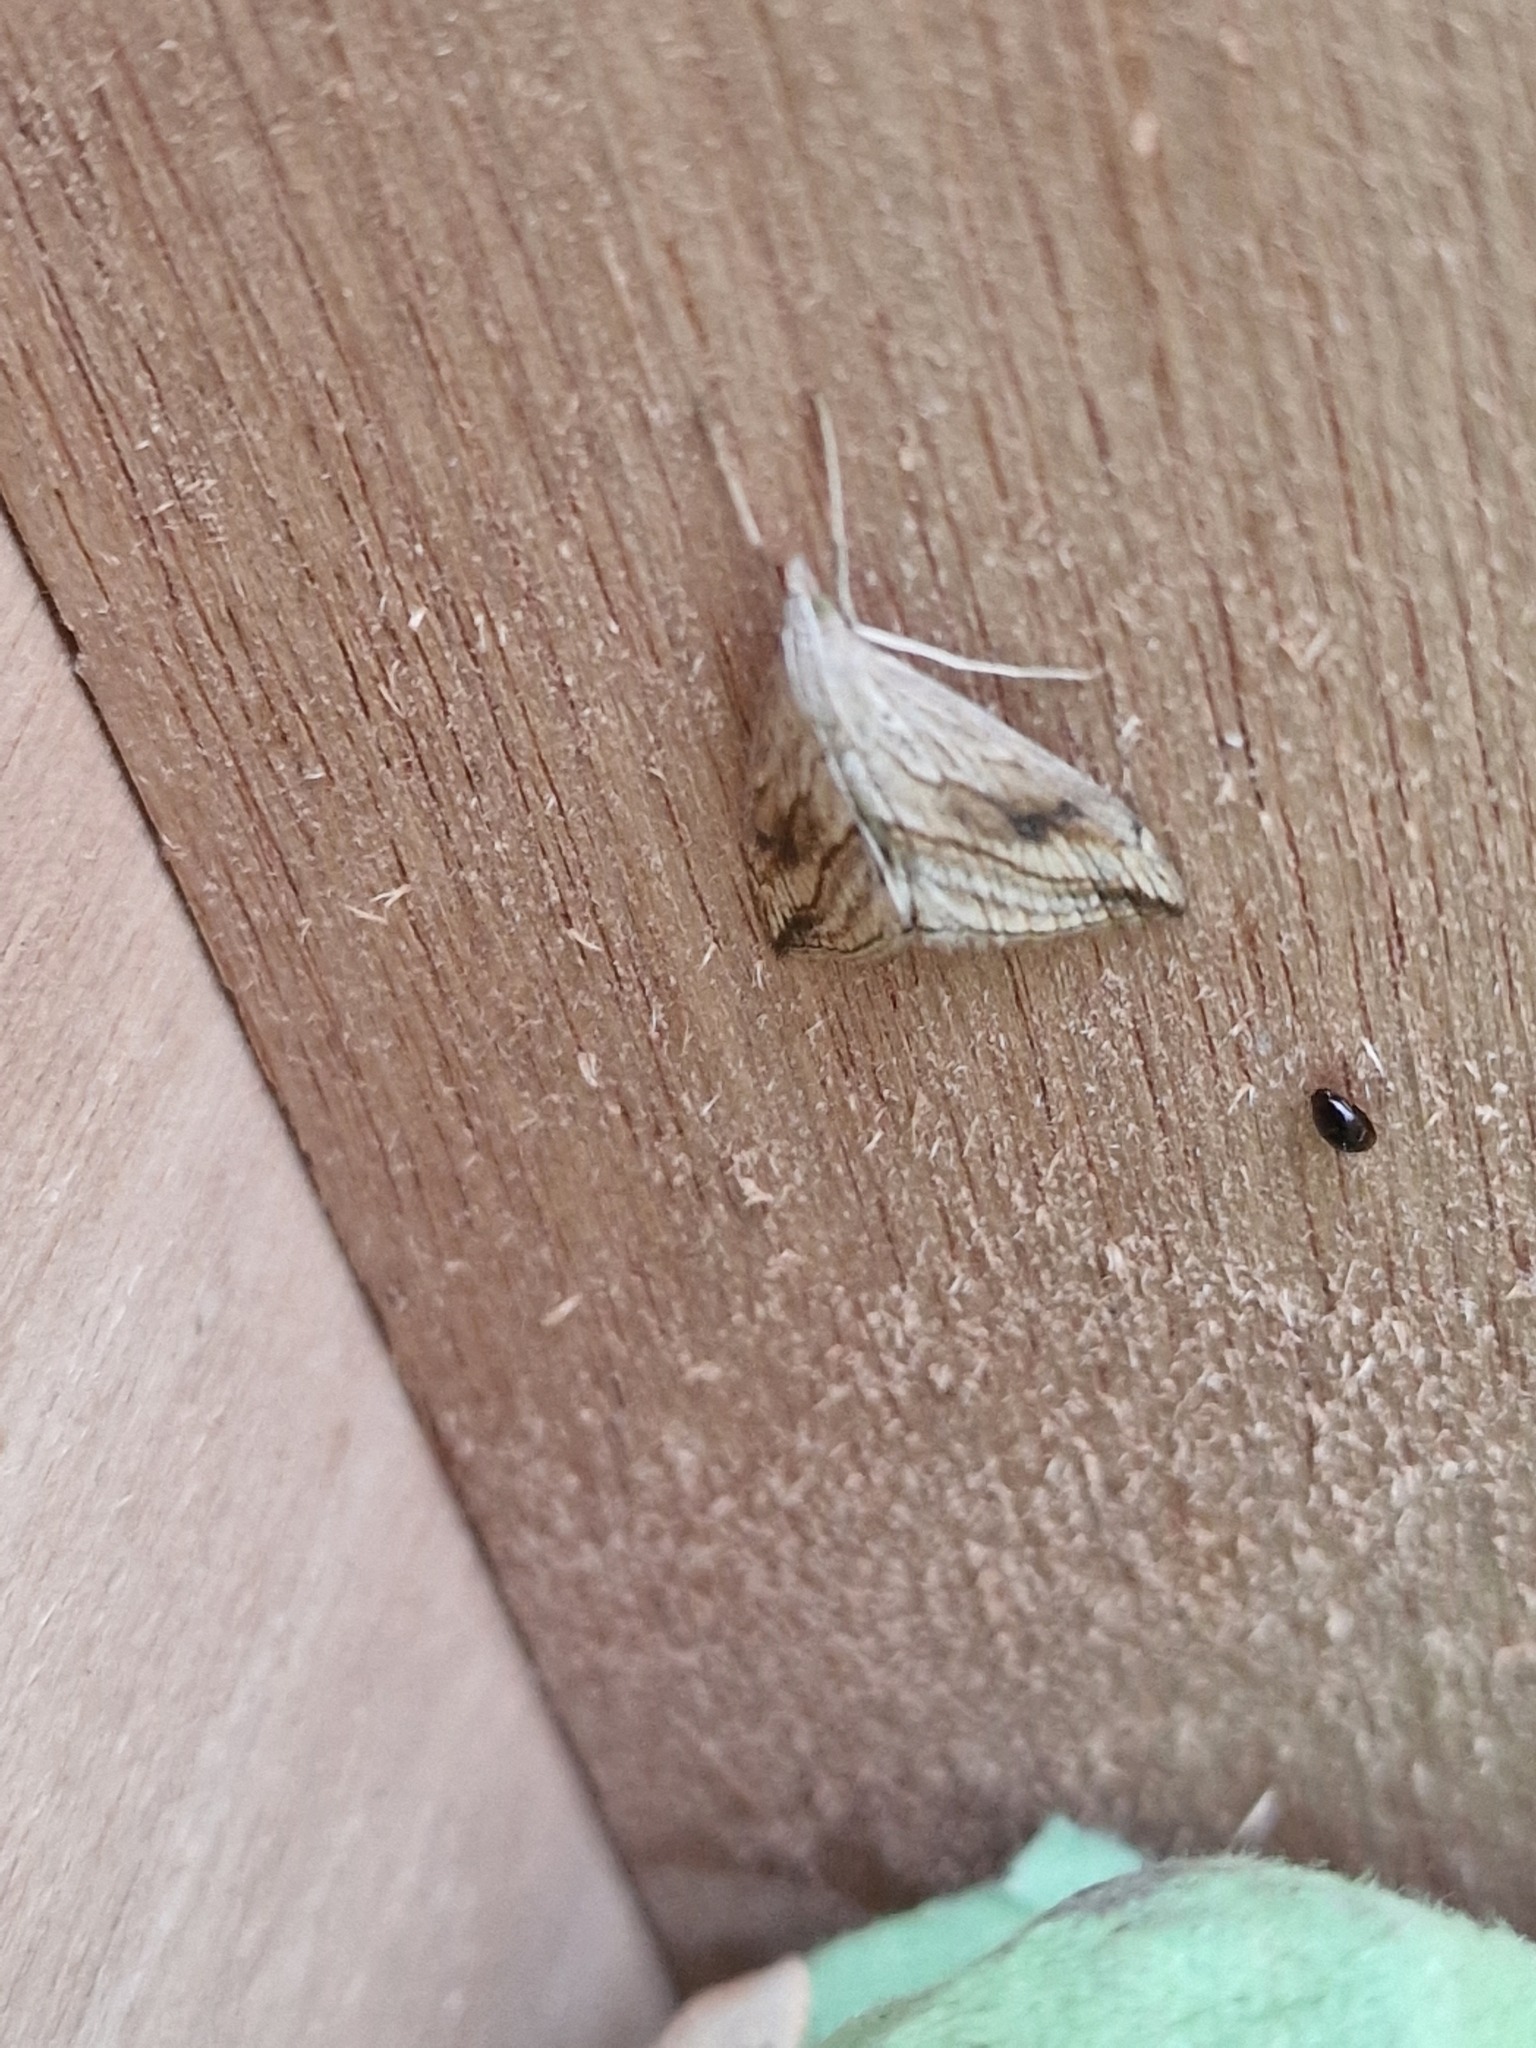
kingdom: Animalia
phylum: Arthropoda
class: Insecta
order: Lepidoptera
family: Crambidae
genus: Evergestis
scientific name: Evergestis forficalis
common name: Garden pebble
